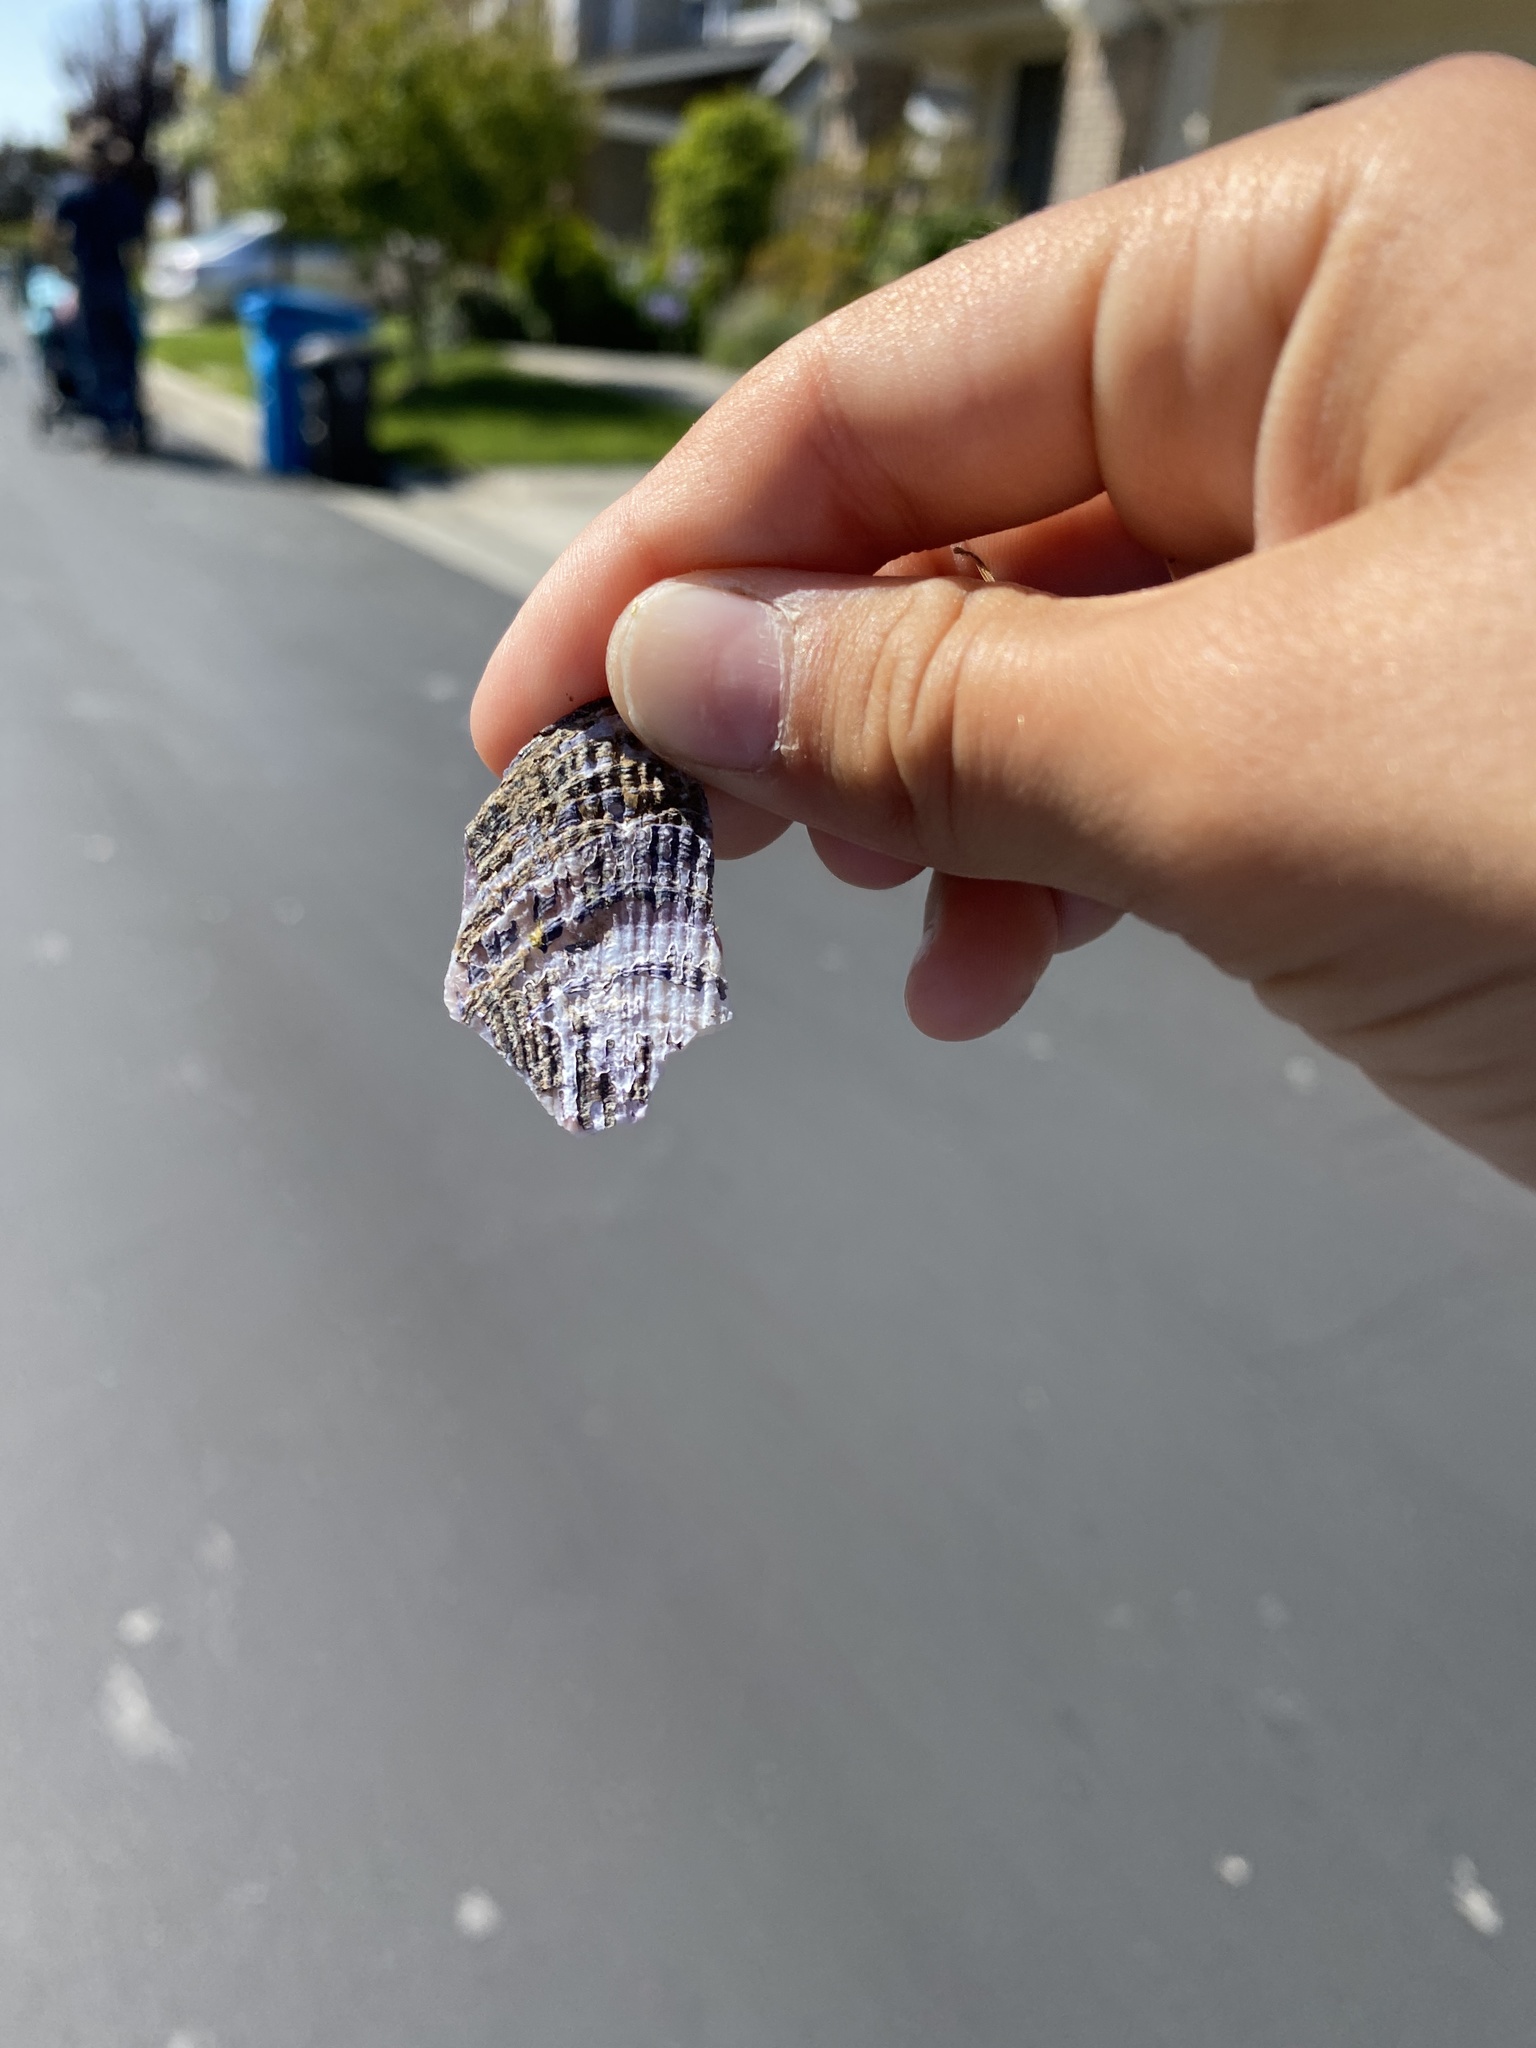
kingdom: Animalia
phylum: Mollusca
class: Bivalvia
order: Mytilida
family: Mytilidae
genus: Geukensia
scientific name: Geukensia demissa
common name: Ribbed mussel
